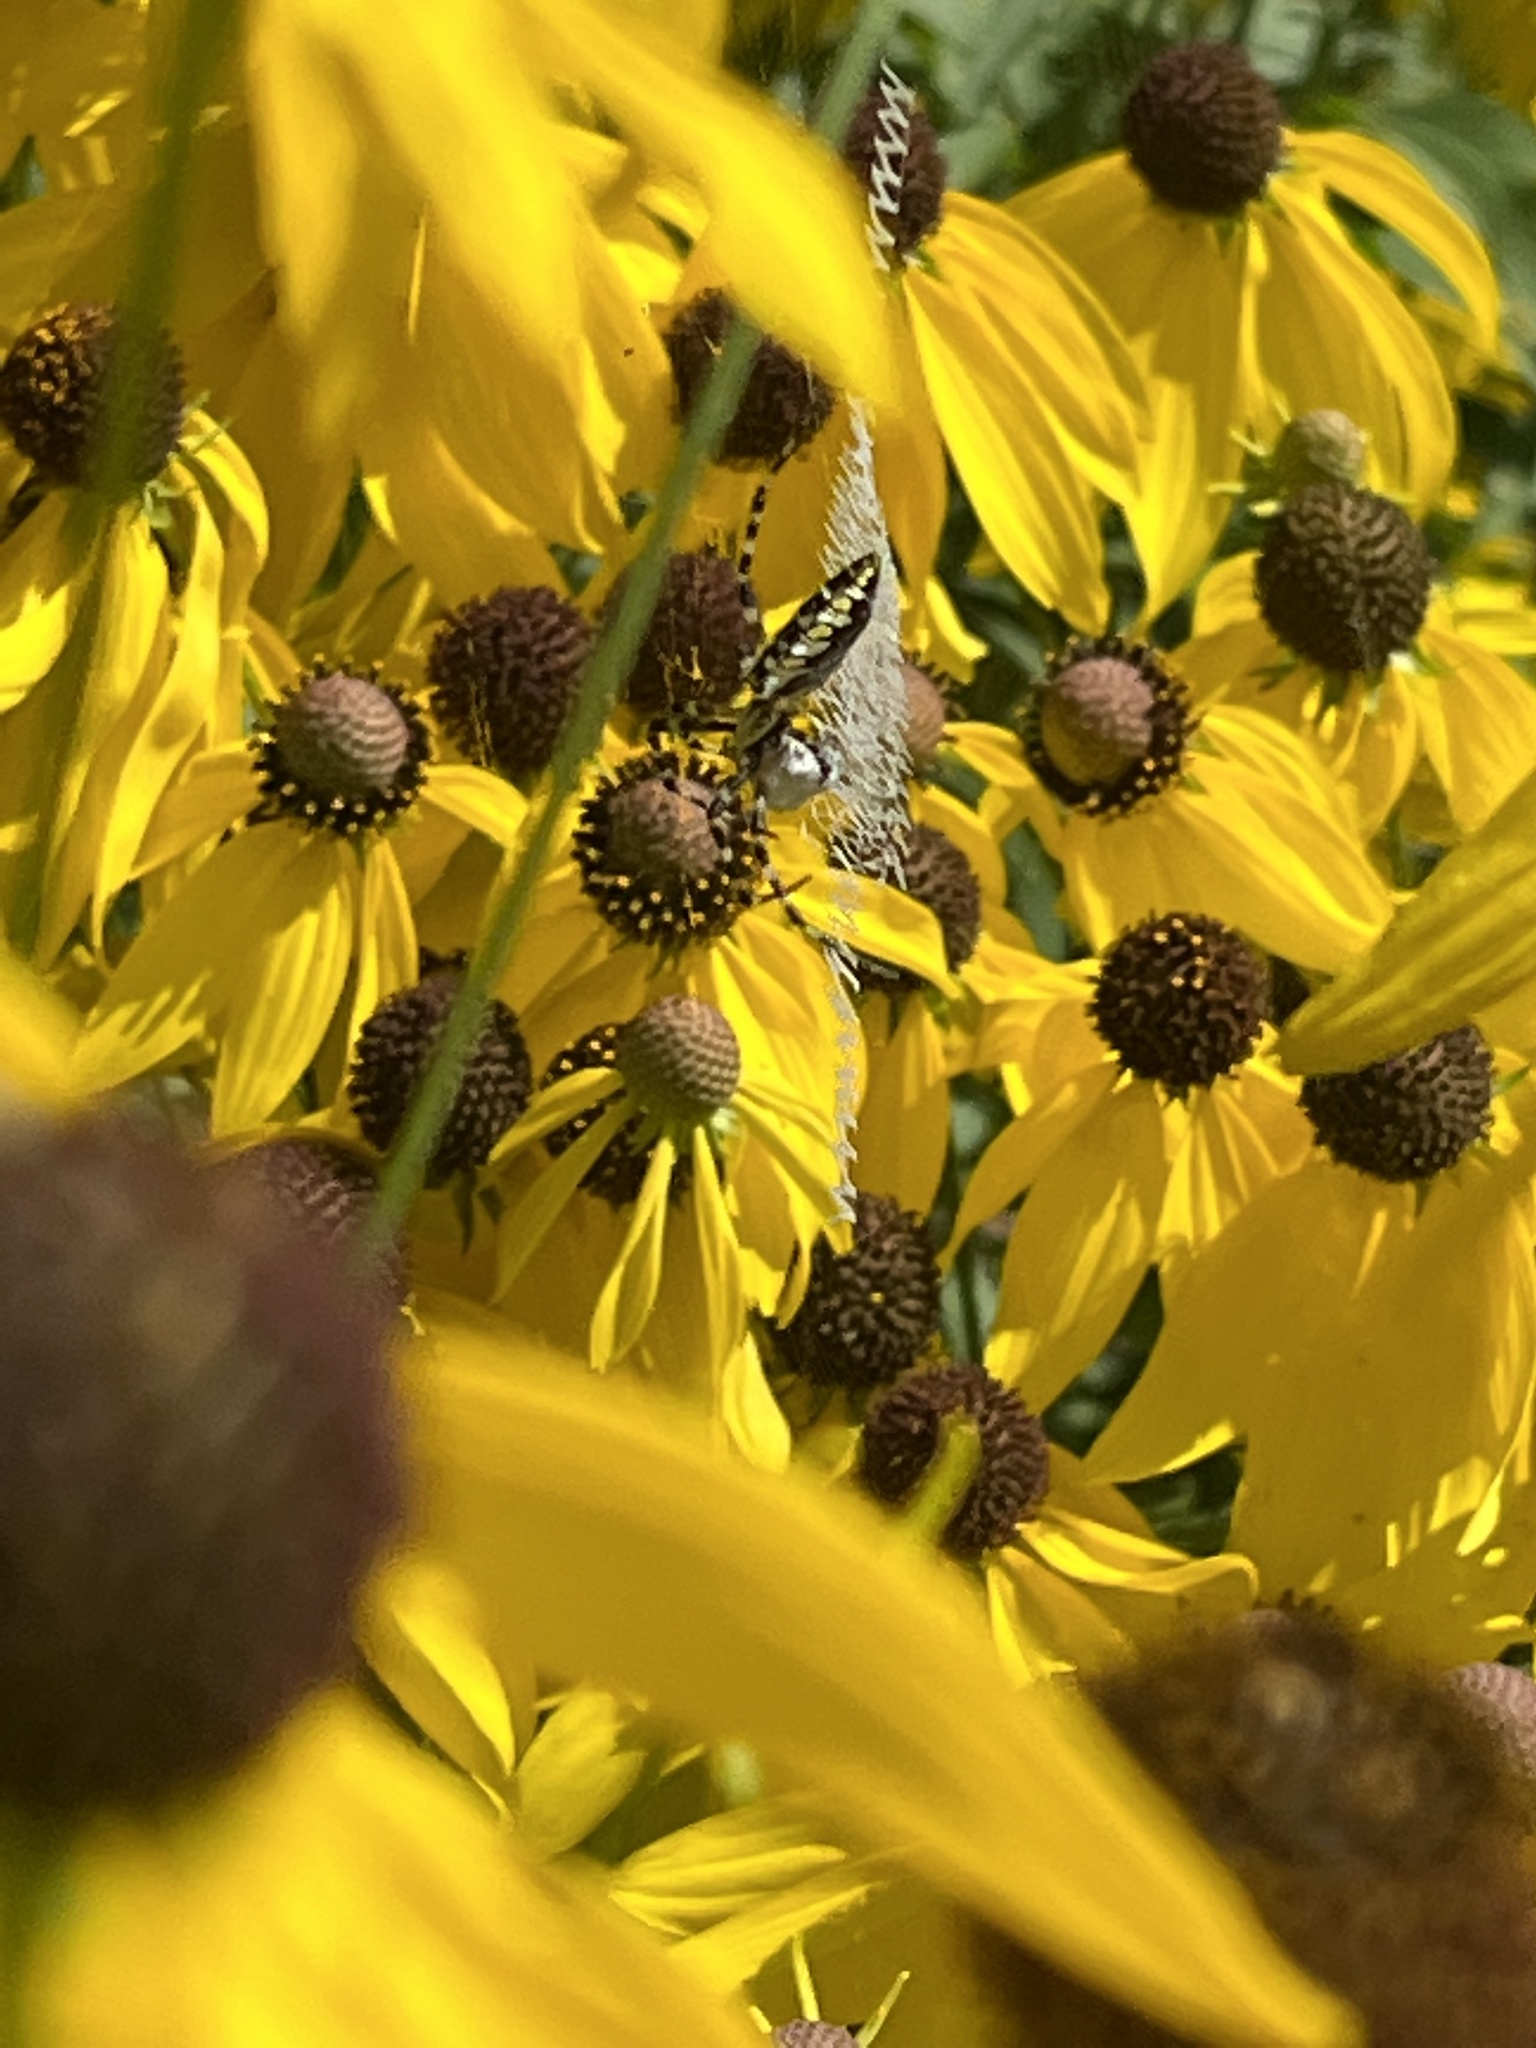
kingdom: Animalia
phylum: Arthropoda
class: Arachnida
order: Araneae
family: Araneidae
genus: Argiope
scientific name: Argiope aurantia
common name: Orb weavers
